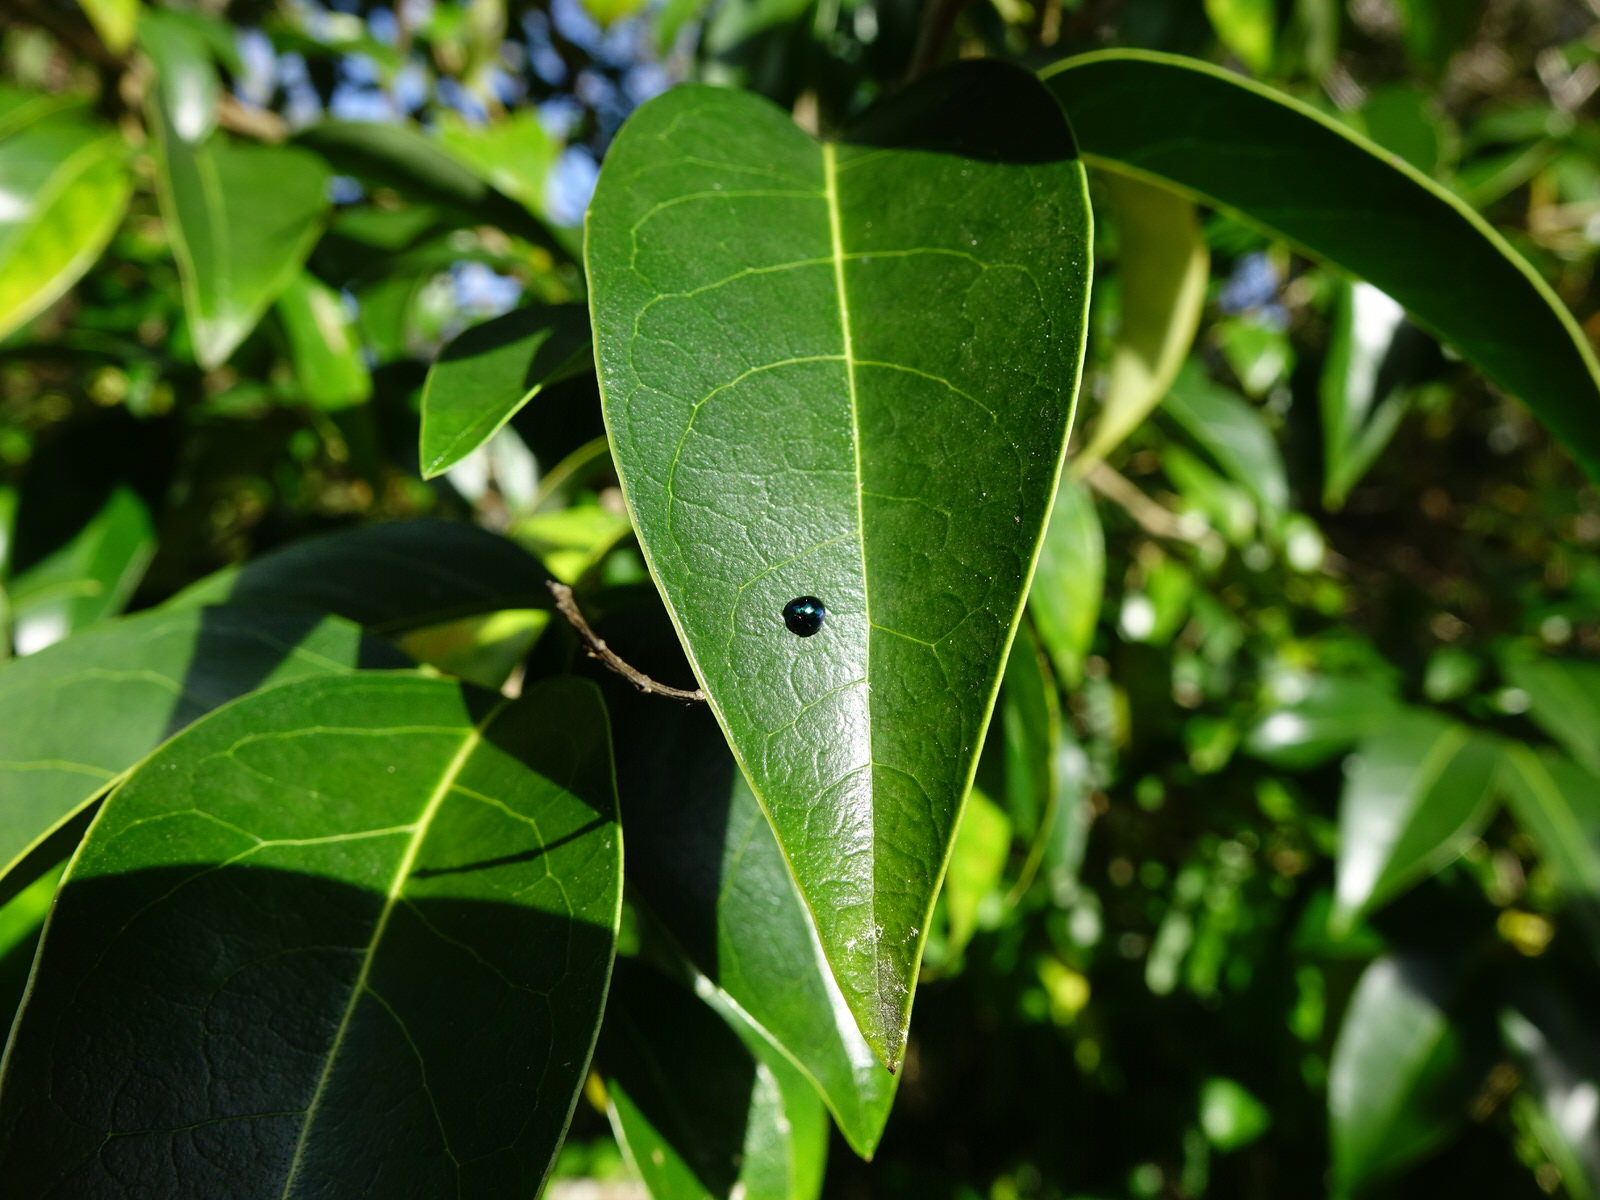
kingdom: Animalia
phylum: Arthropoda
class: Insecta
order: Coleoptera
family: Coccinellidae
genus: Halmus
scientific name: Halmus chalybeus
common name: Steel blue ladybird beetle
